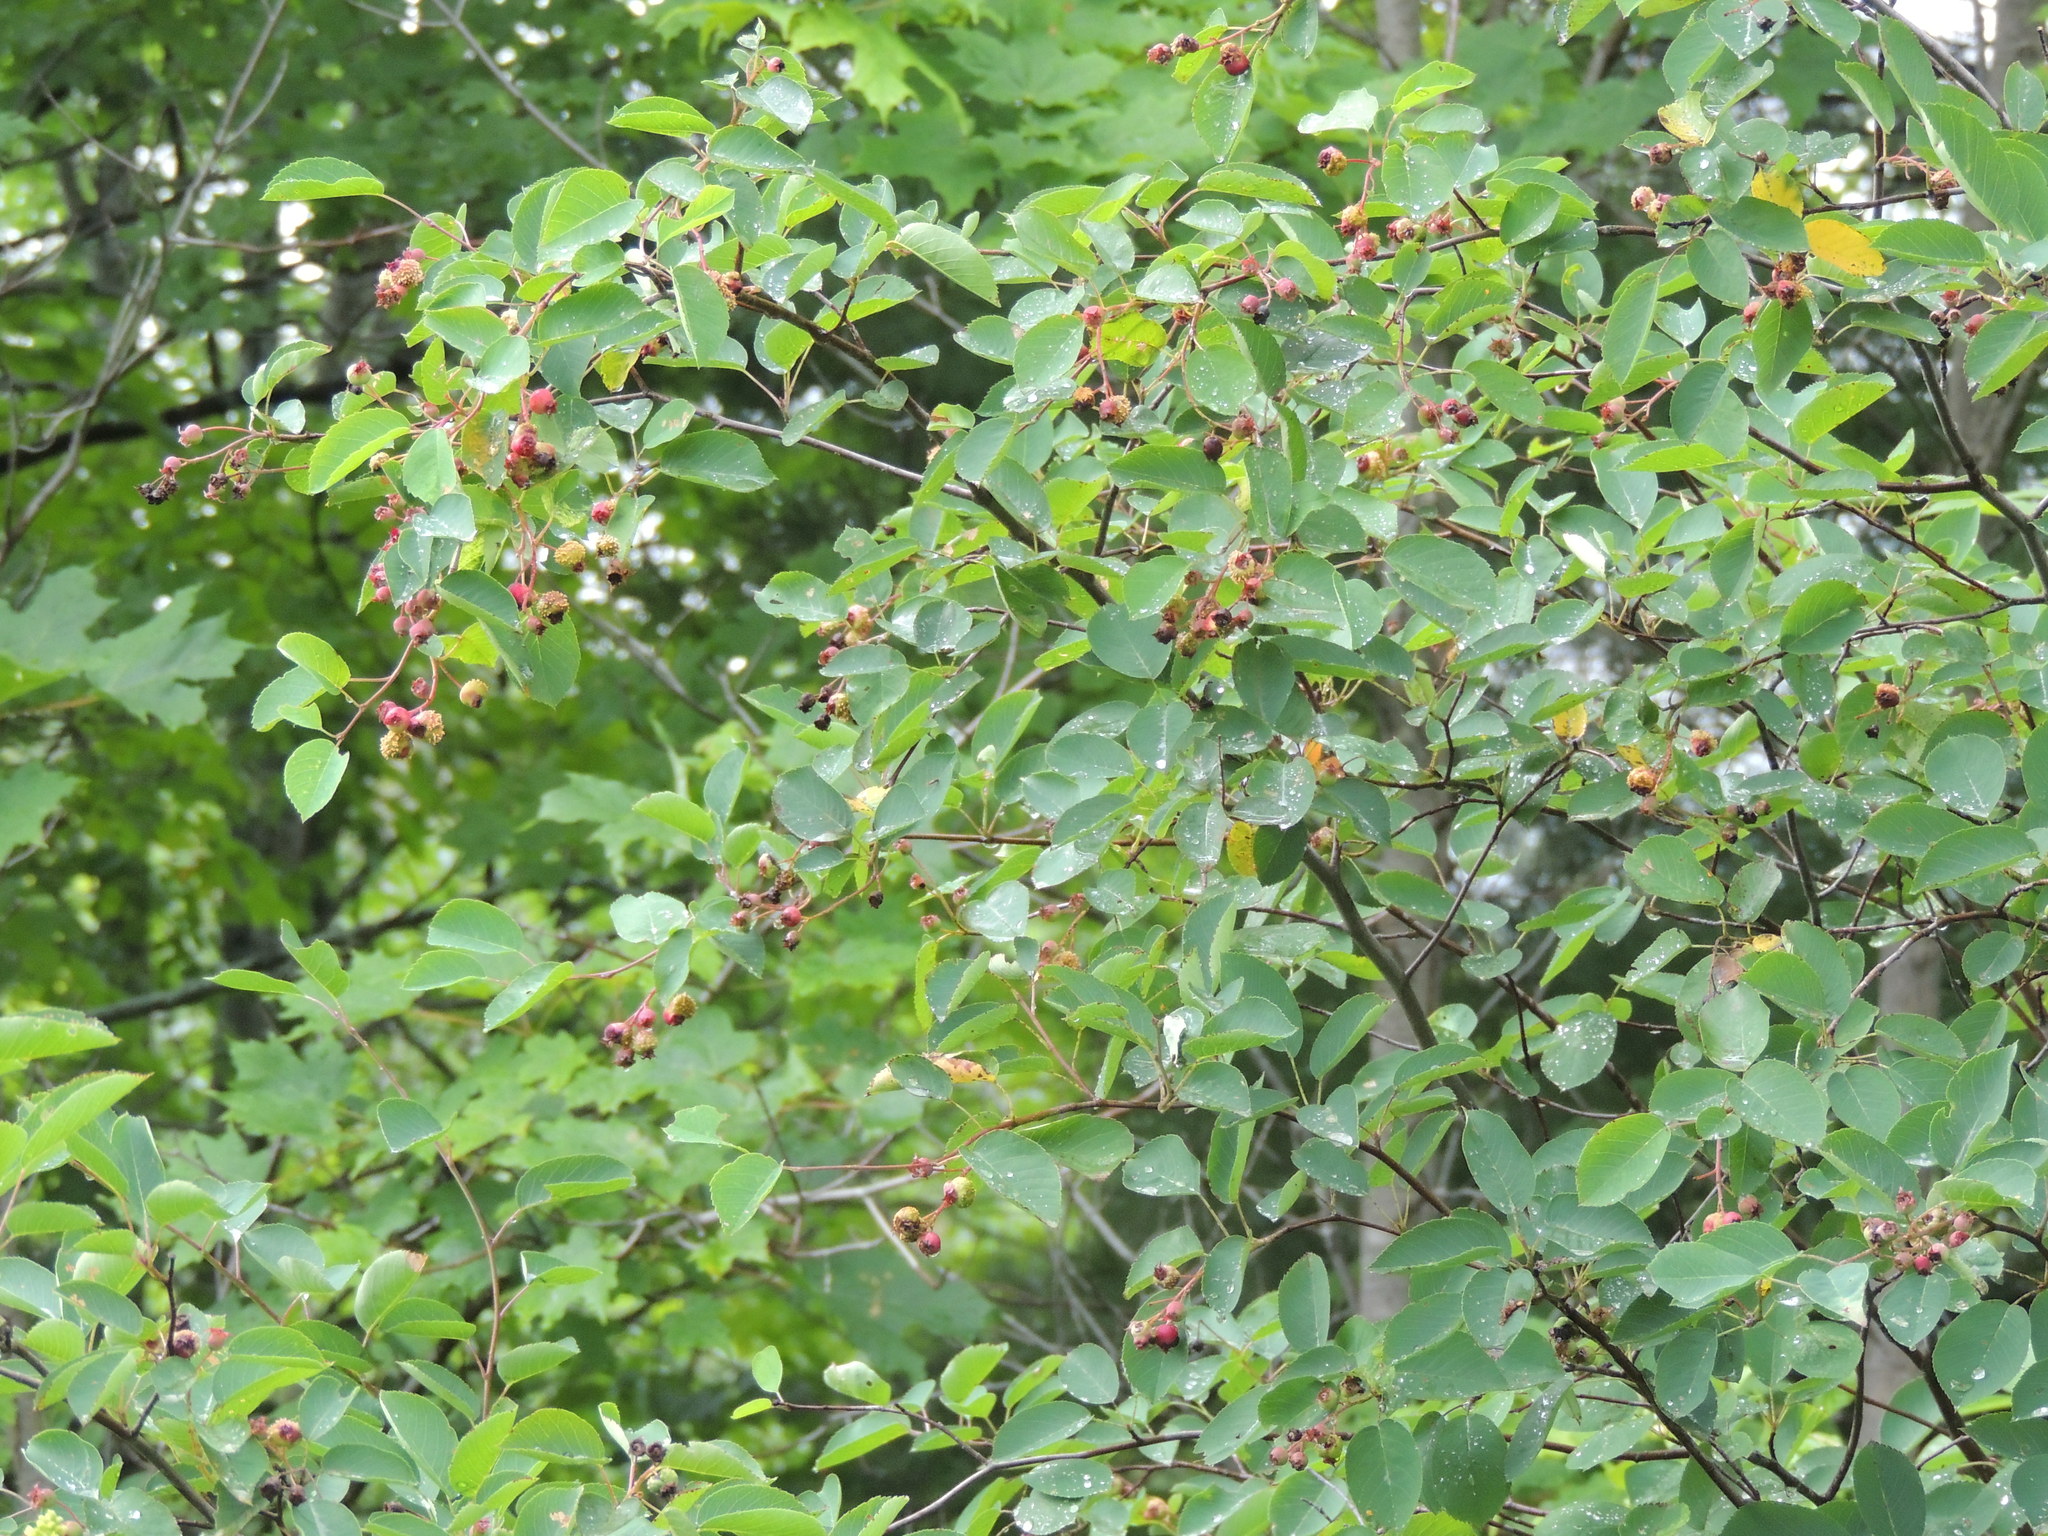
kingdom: Plantae
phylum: Tracheophyta
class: Magnoliopsida
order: Rosales
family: Rosaceae
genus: Amelanchier
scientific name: Amelanchier alnifolia
